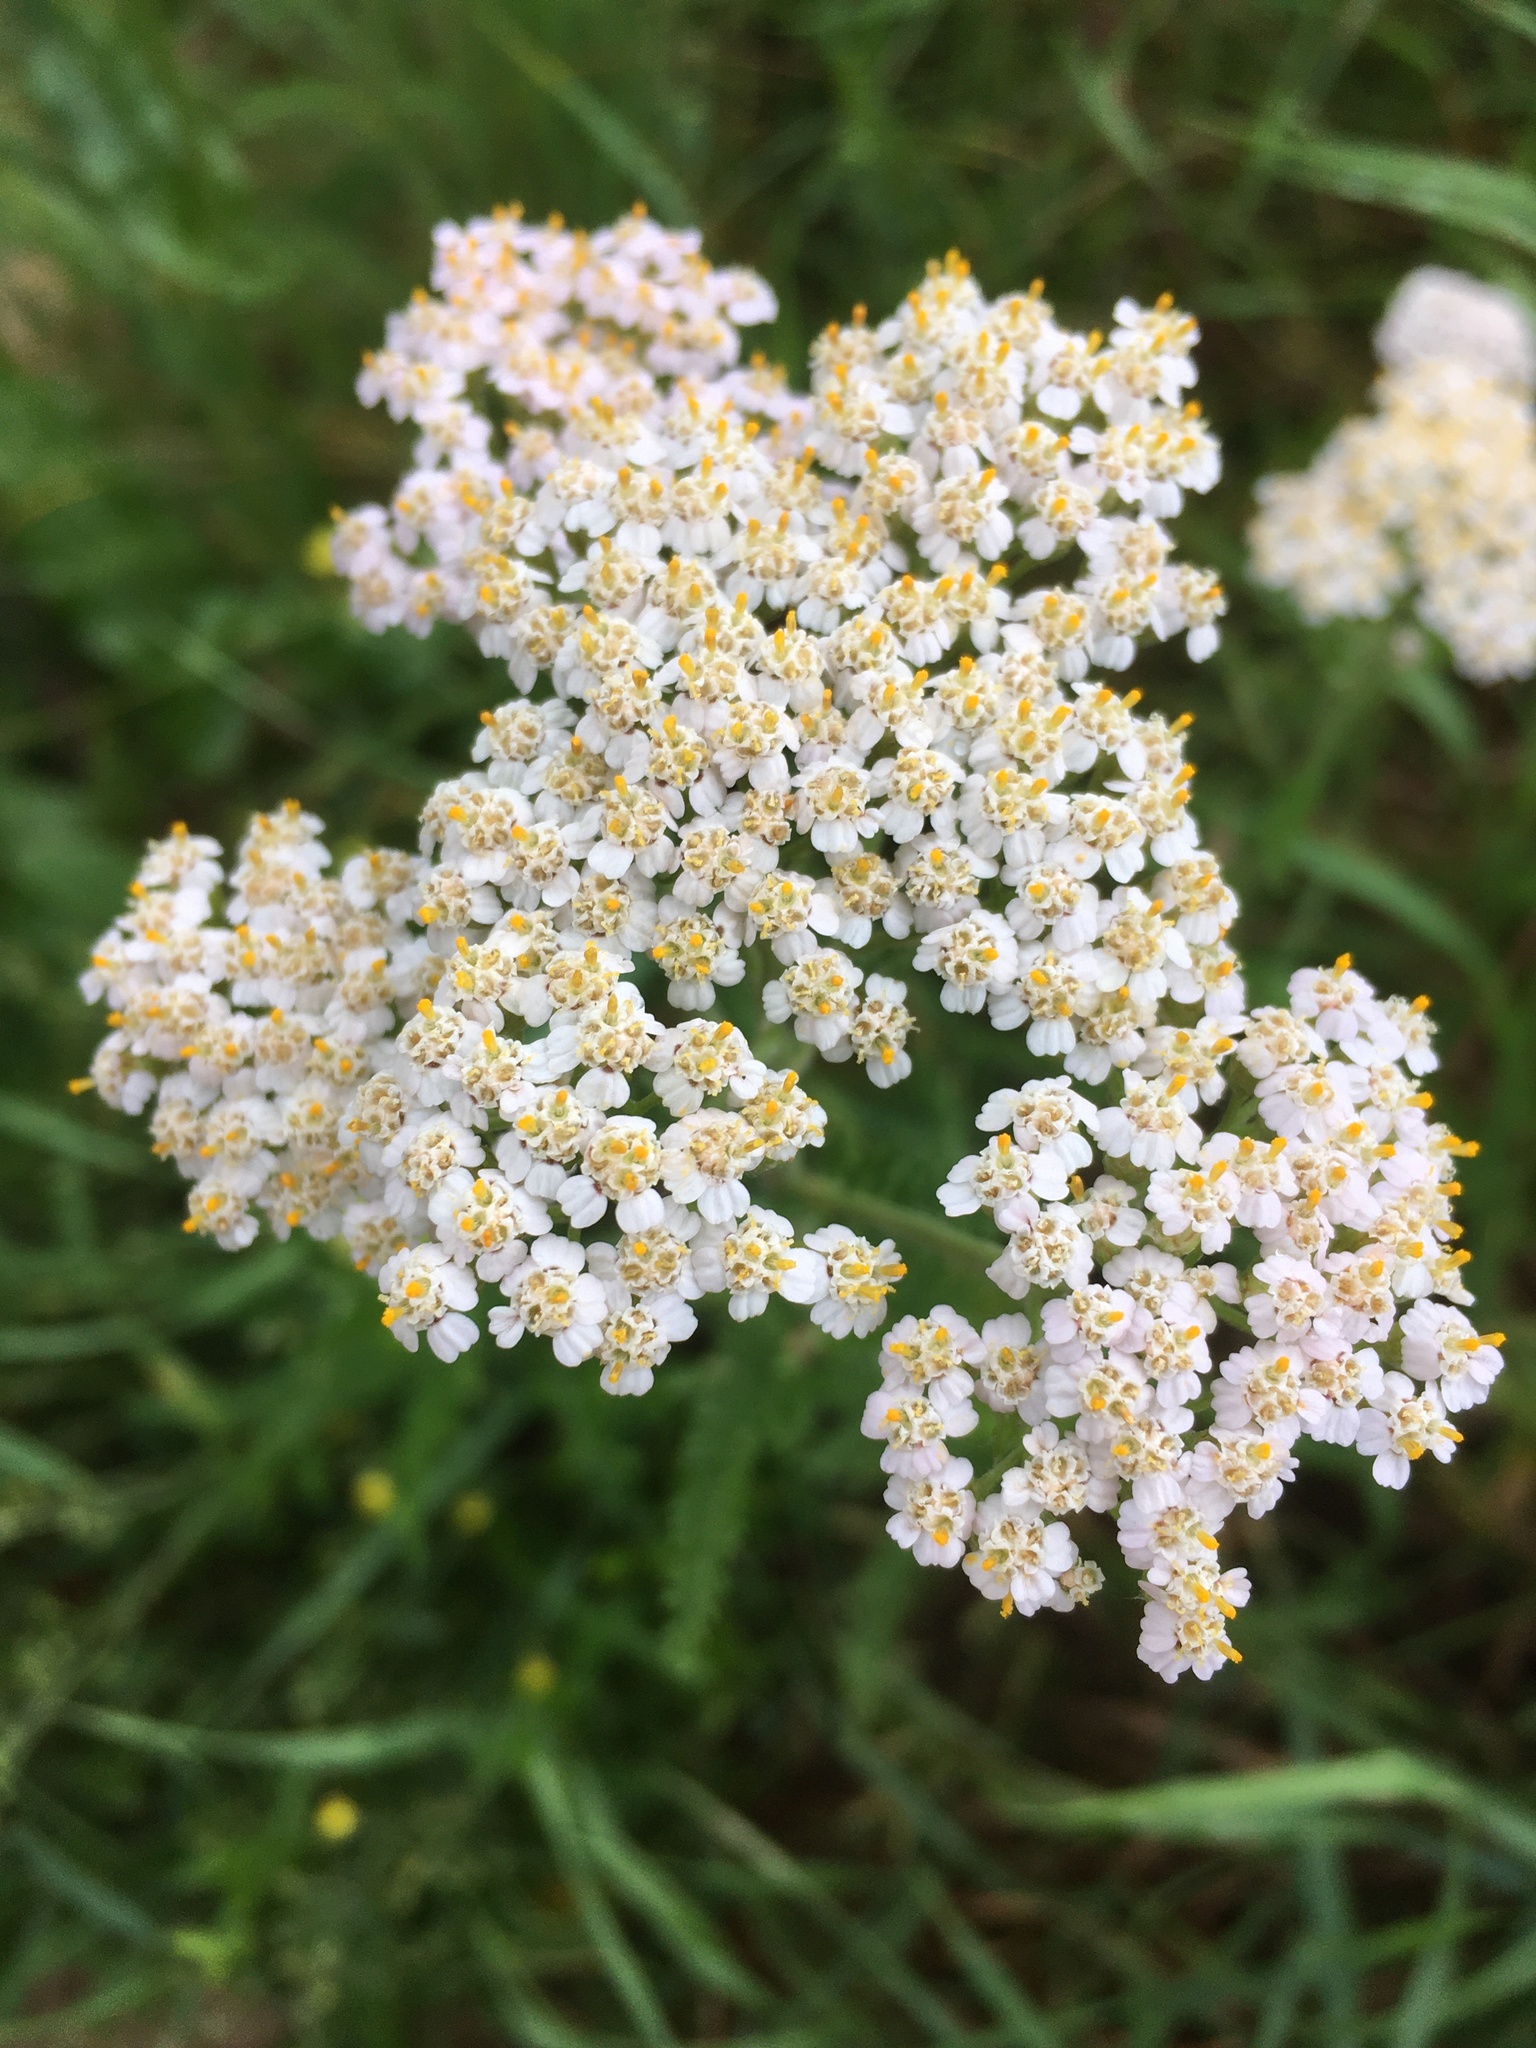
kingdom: Plantae
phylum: Tracheophyta
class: Magnoliopsida
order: Asterales
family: Asteraceae
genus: Achillea
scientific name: Achillea millefolium
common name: Yarrow
